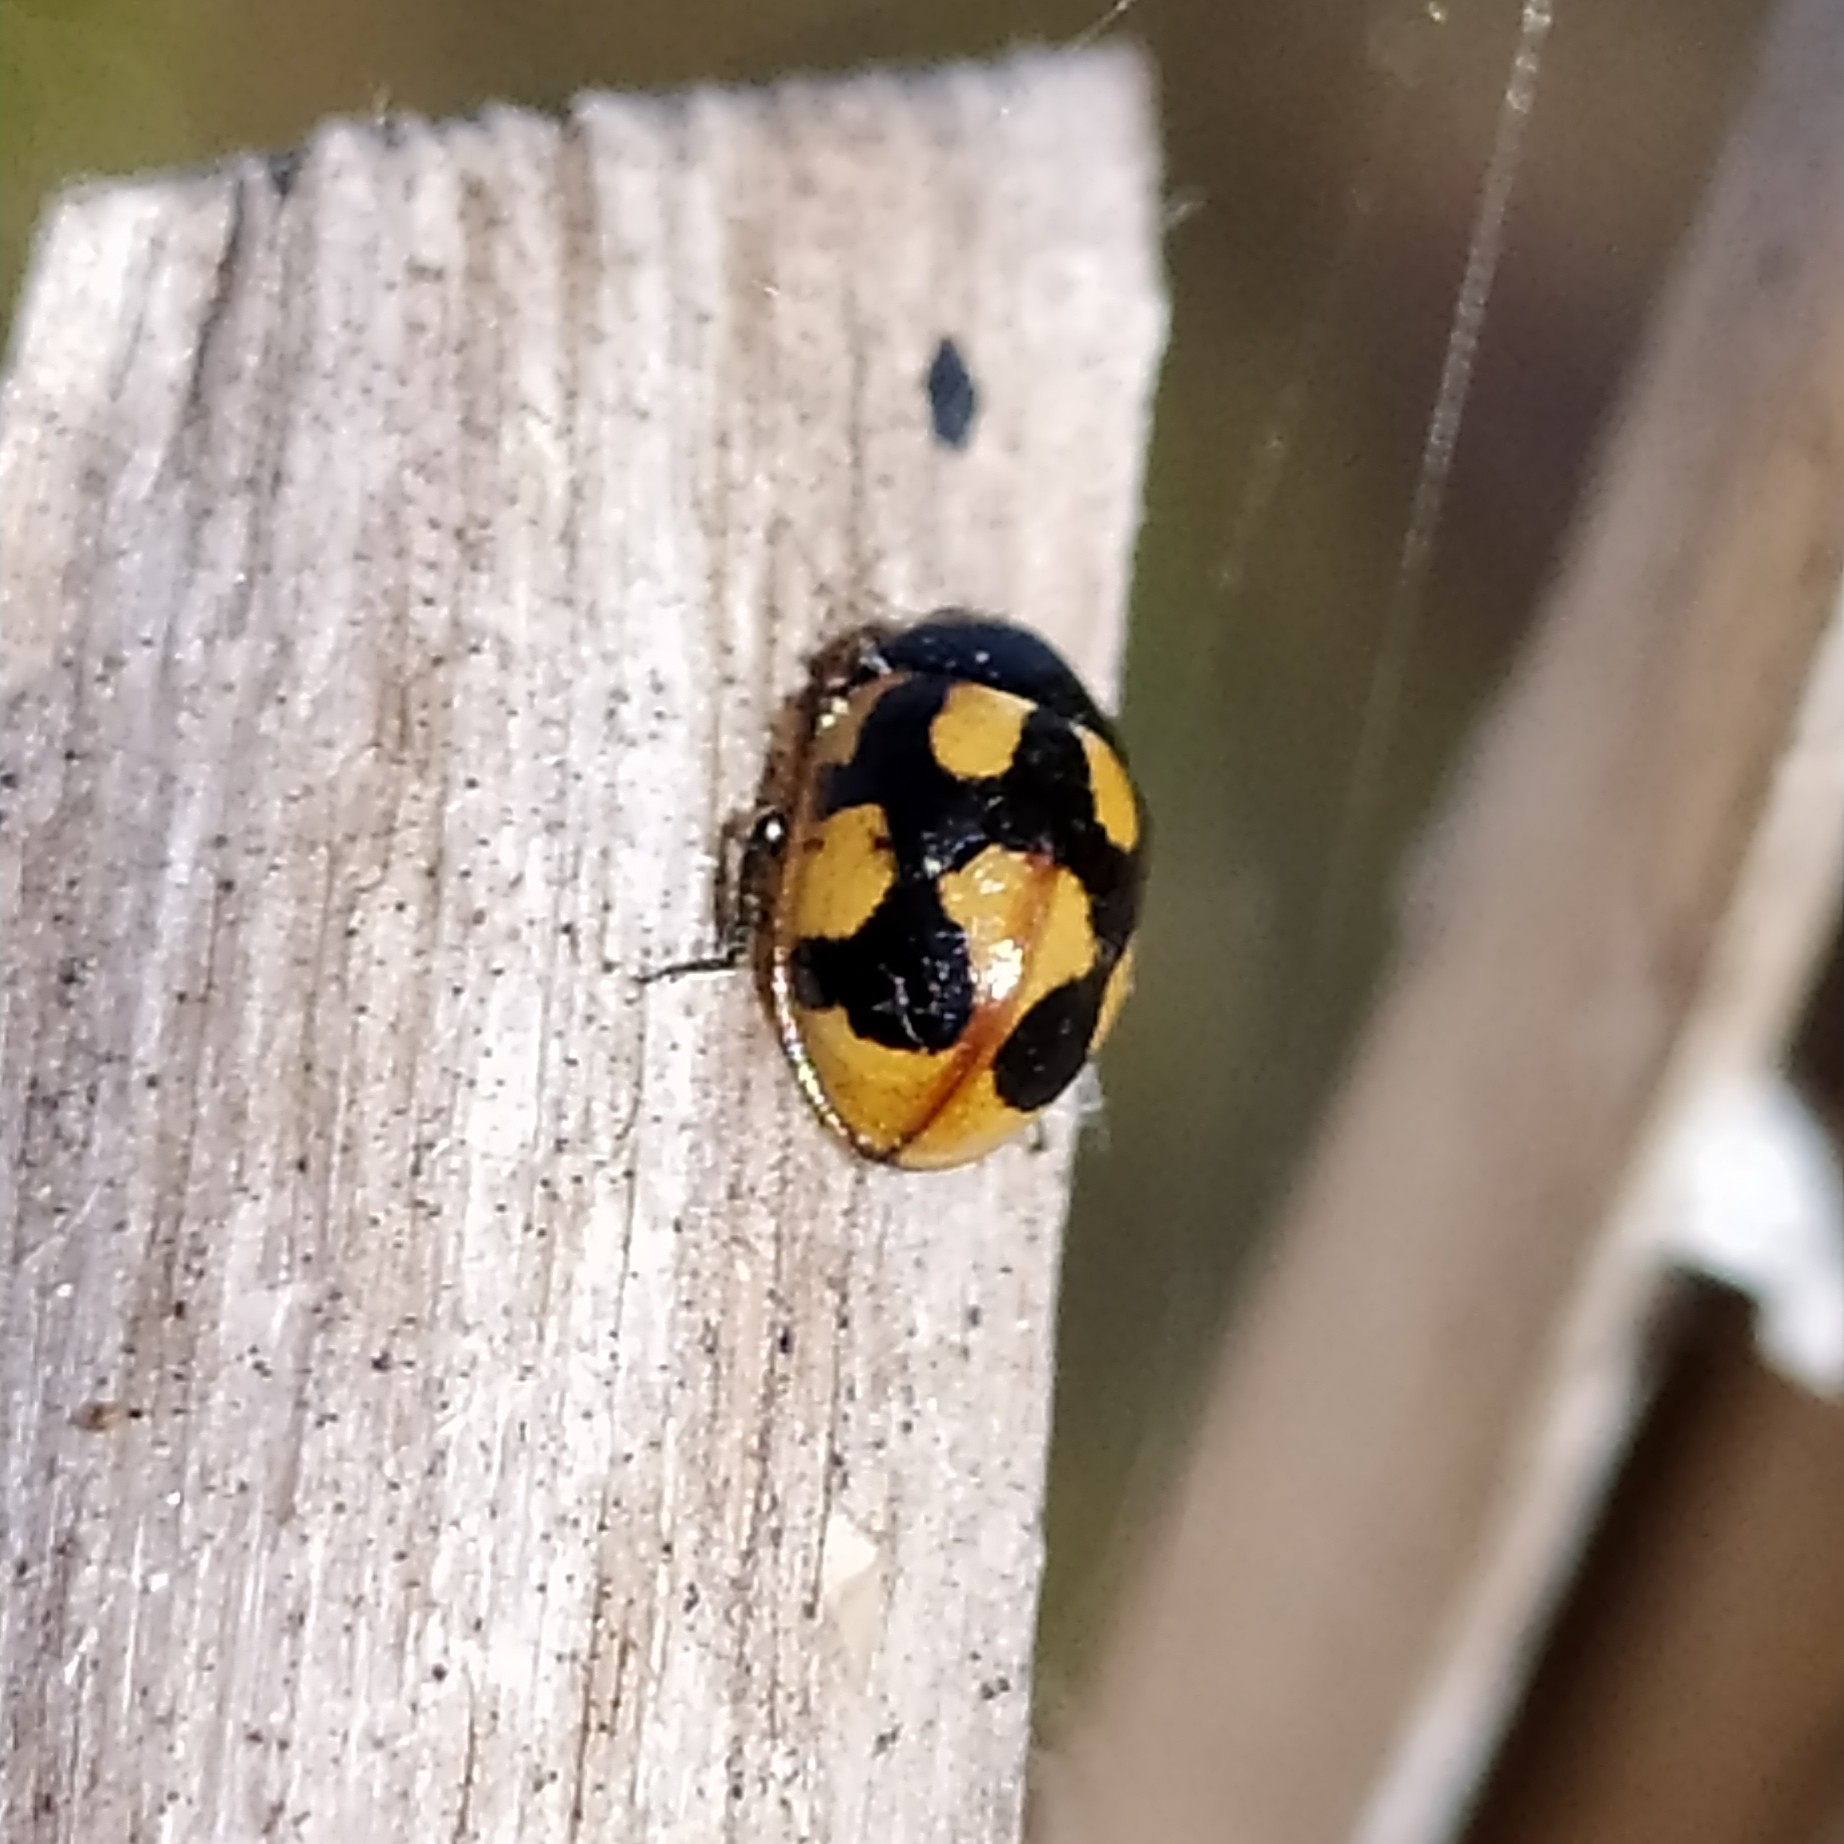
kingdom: Animalia
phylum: Arthropoda
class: Insecta
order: Coleoptera
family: Coccinellidae
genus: Coccinella
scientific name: Coccinella hieroglyphica
